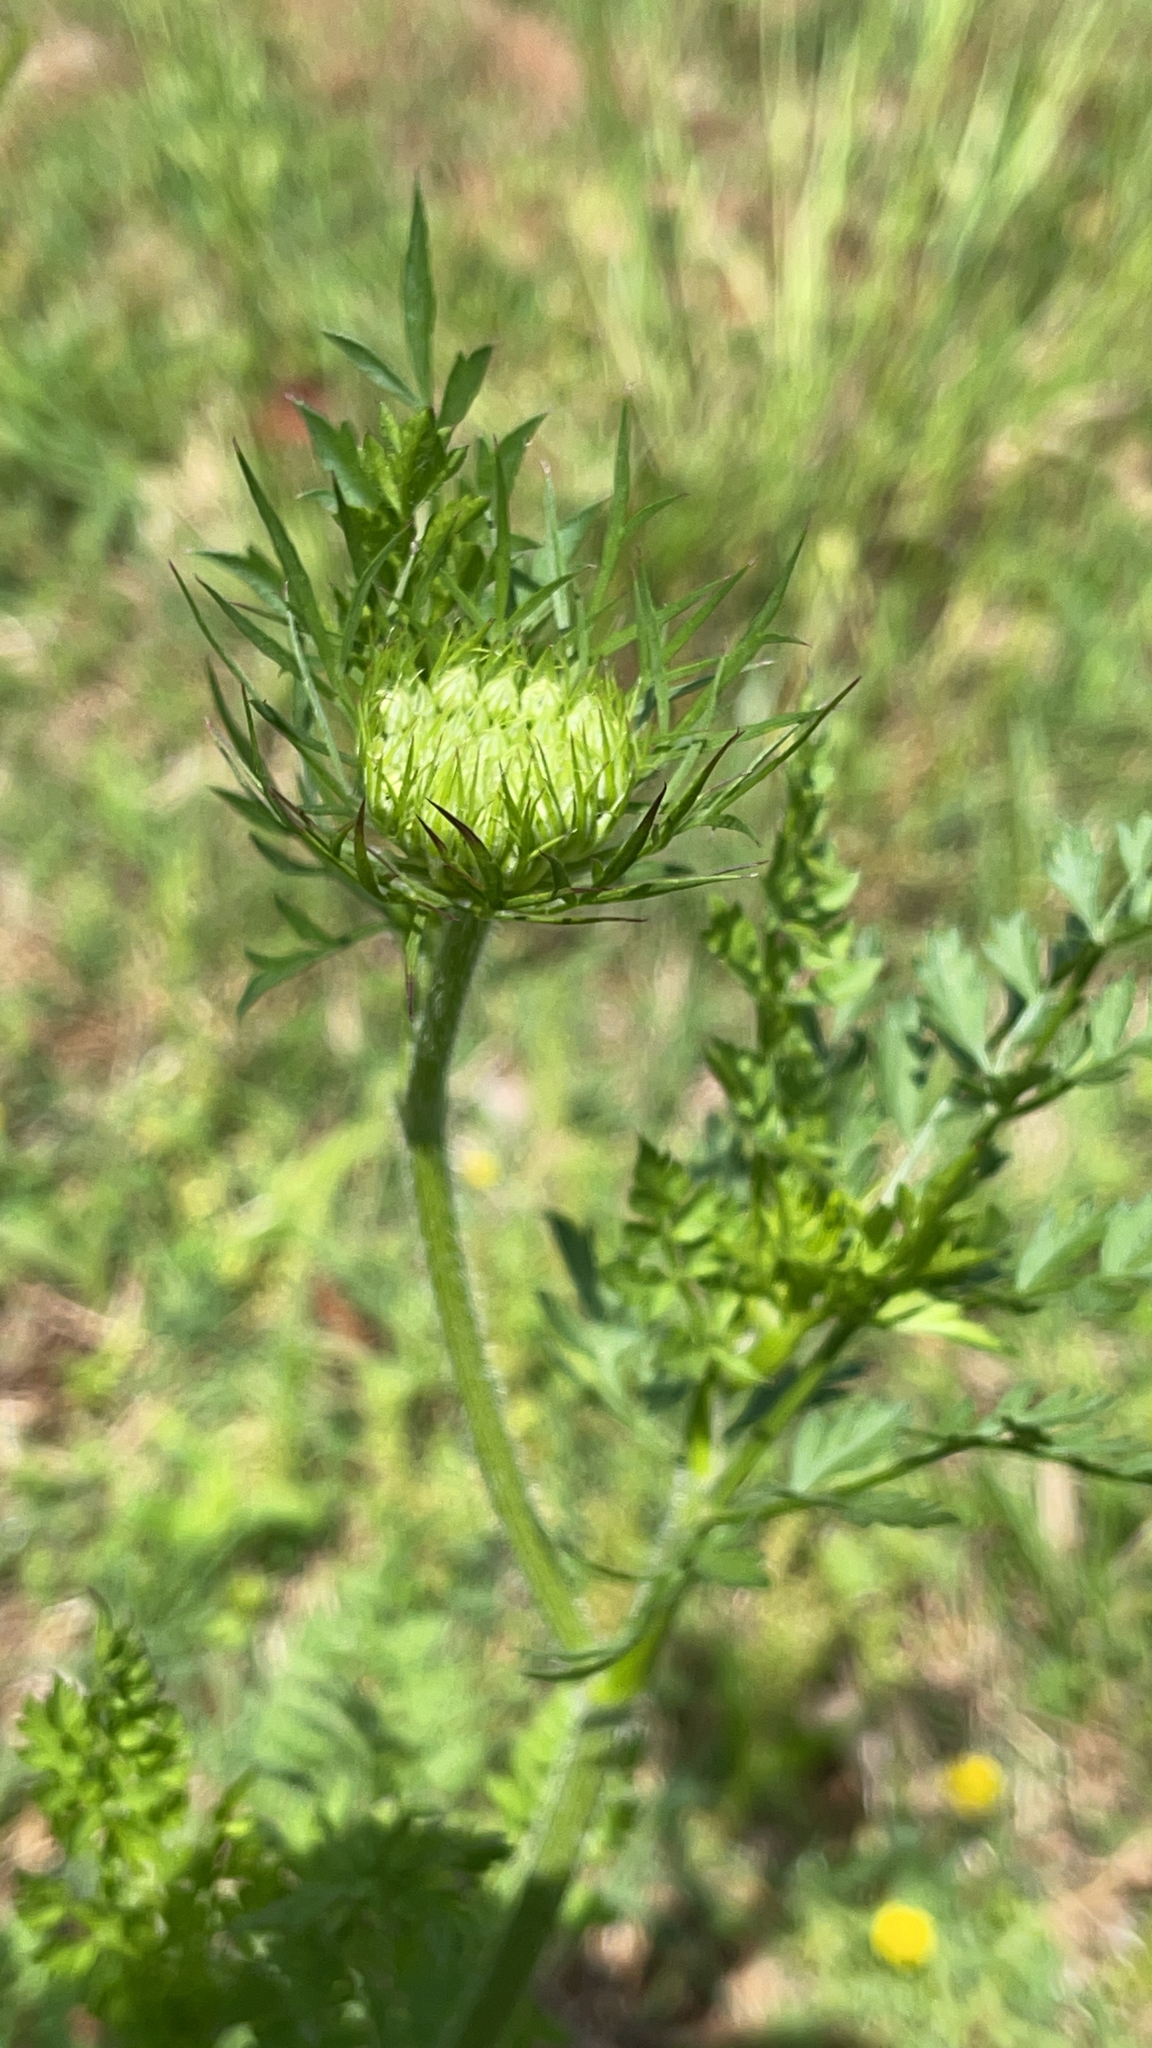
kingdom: Plantae
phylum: Tracheophyta
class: Magnoliopsida
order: Apiales
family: Apiaceae
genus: Daucus
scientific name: Daucus carota
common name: Wild carrot
